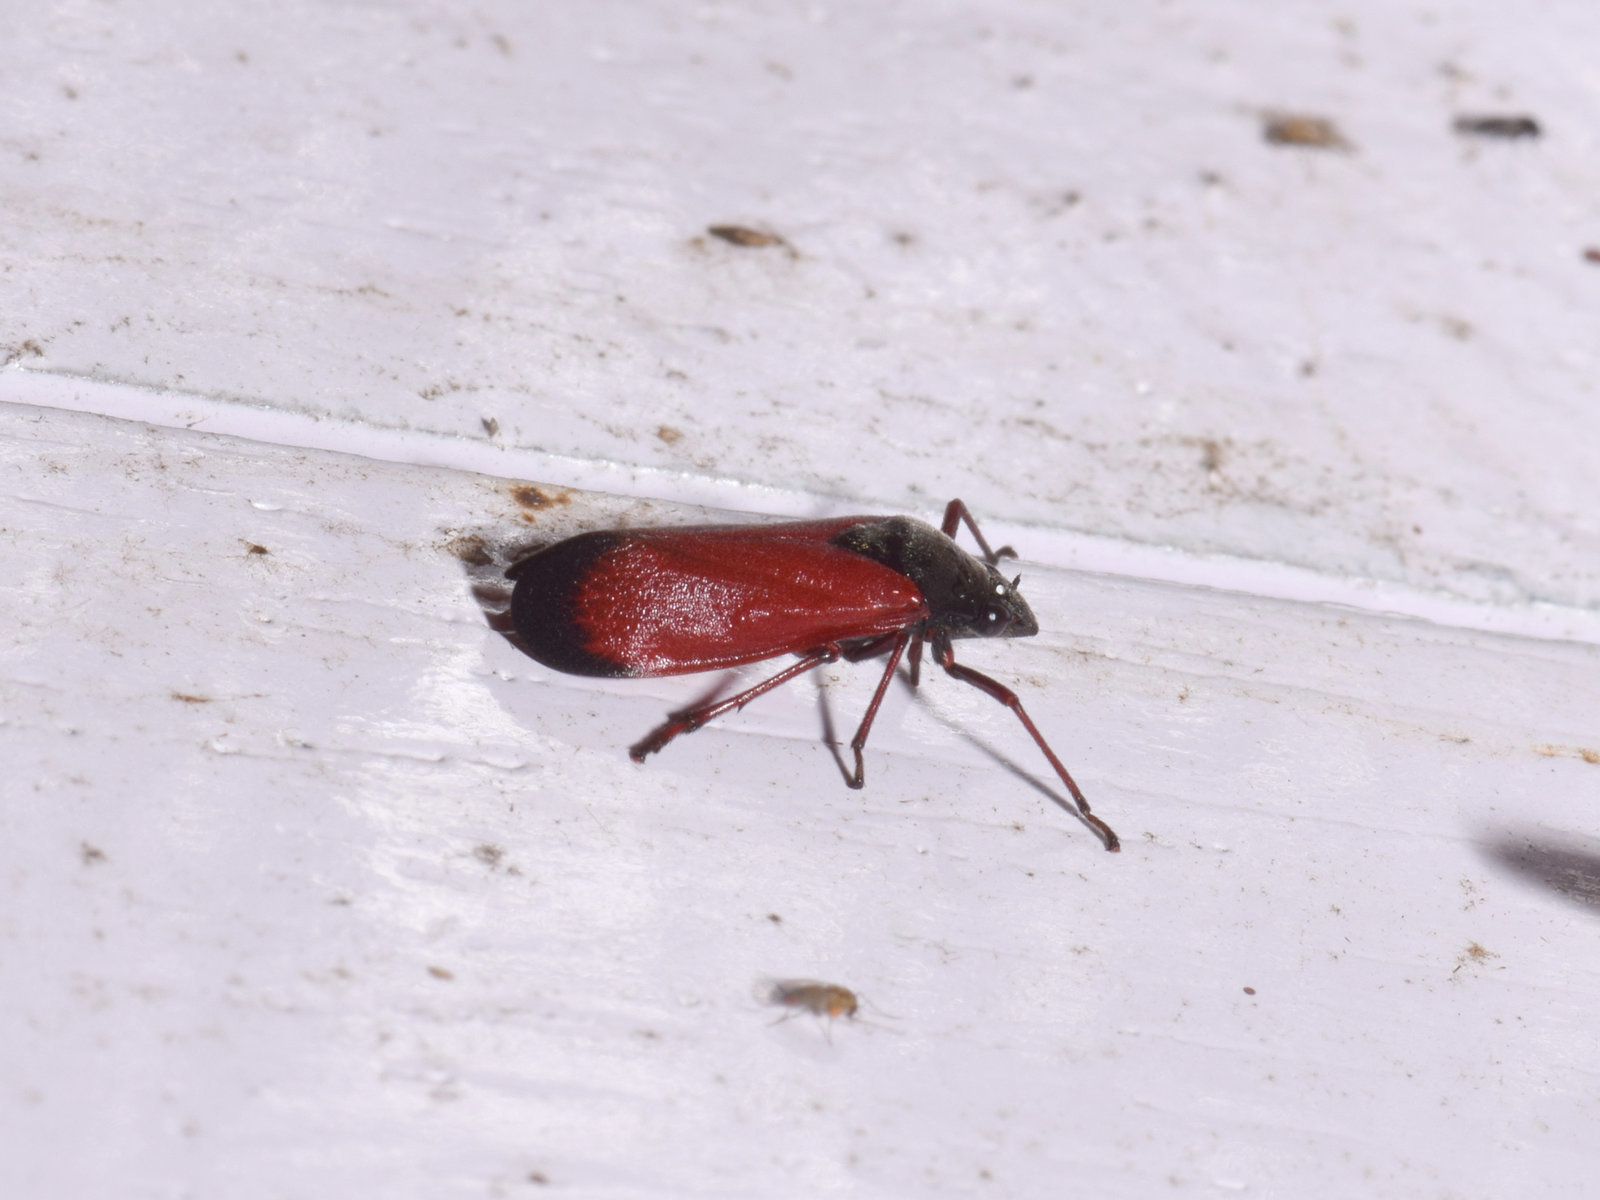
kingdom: Animalia
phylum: Arthropoda
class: Insecta
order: Hemiptera
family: Cercopidae
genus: Abidama
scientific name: Abidama producta
